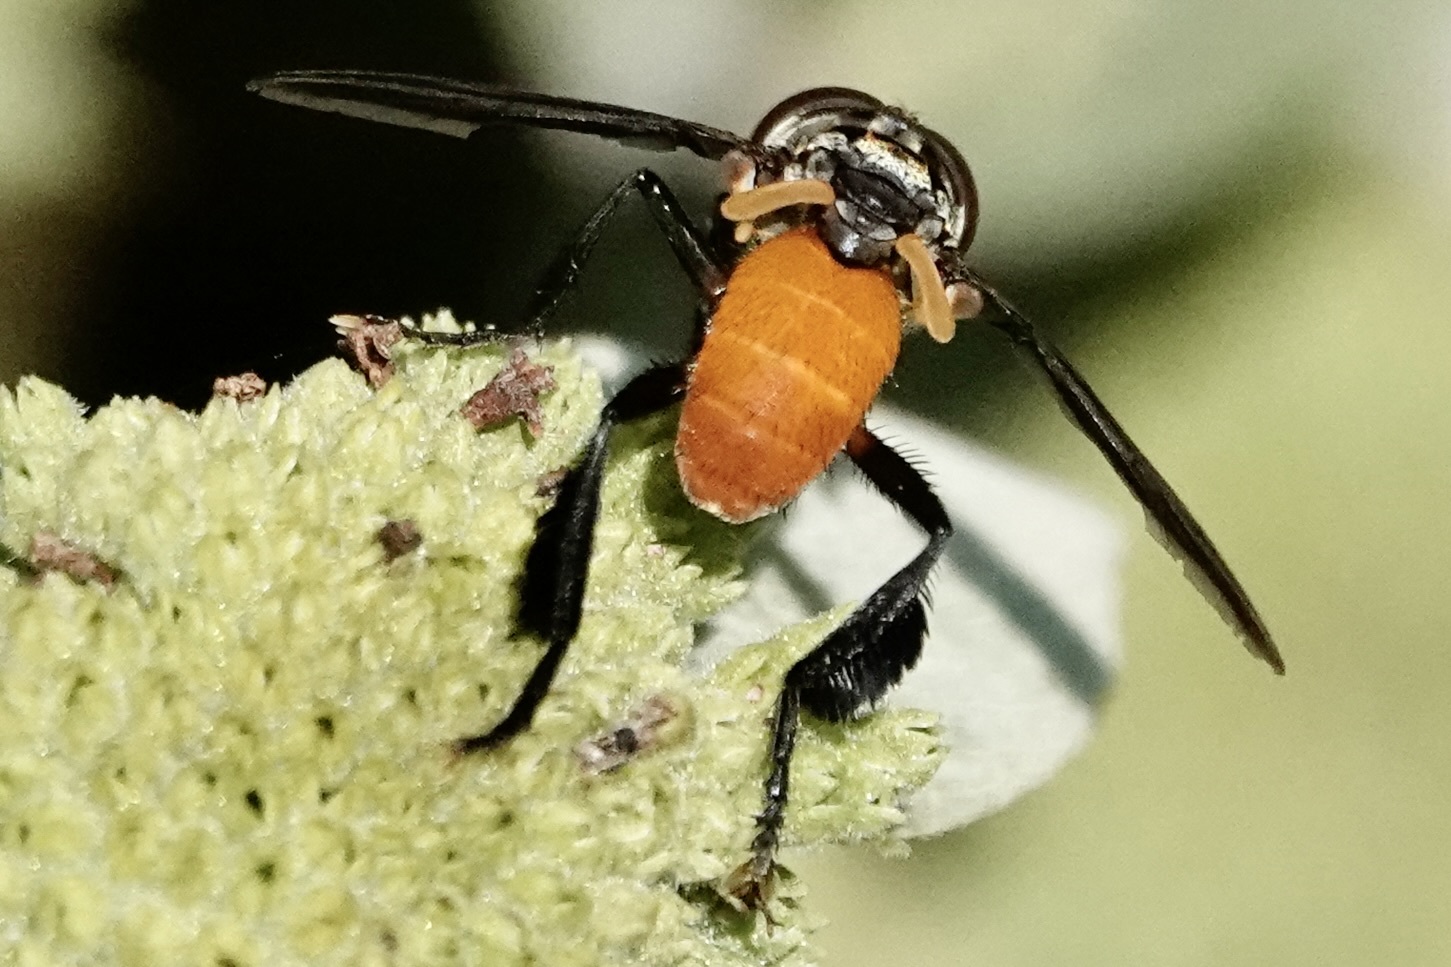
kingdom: Animalia
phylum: Arthropoda
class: Insecta
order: Diptera
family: Tachinidae
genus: Trichopoda
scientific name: Trichopoda pennipes
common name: Tachinid fly
